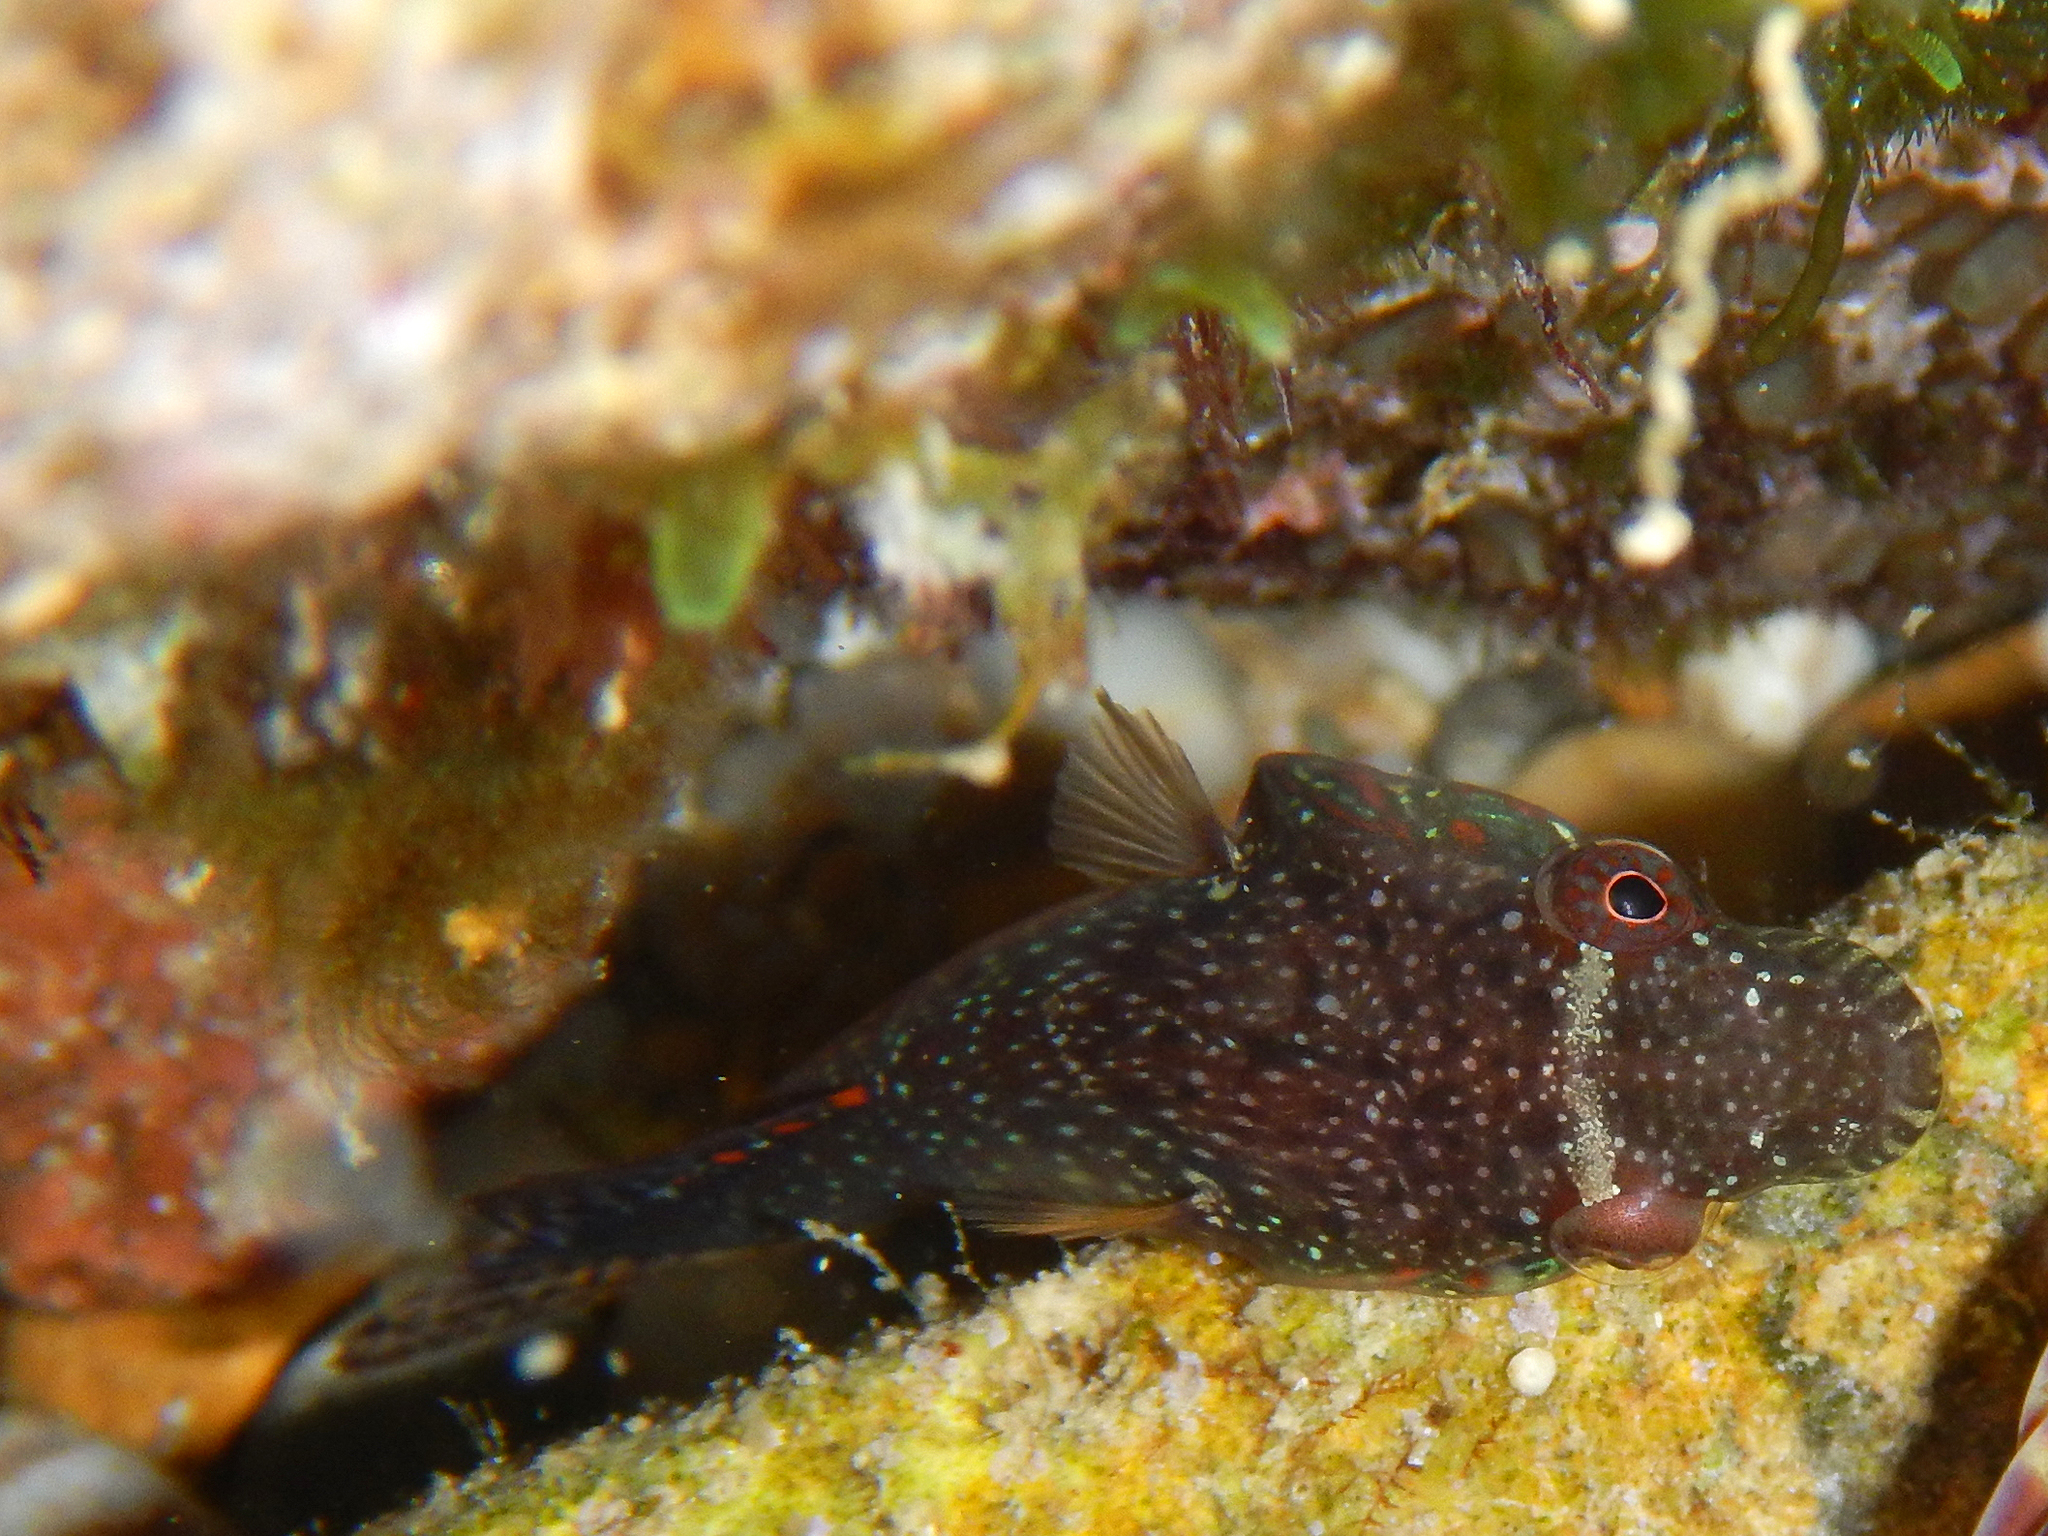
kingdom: Animalia
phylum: Chordata
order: Gobiesociformes
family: Gobiesocidae
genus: Lepadogaster
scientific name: Lepadogaster candolii
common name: Connemarra clingfish
